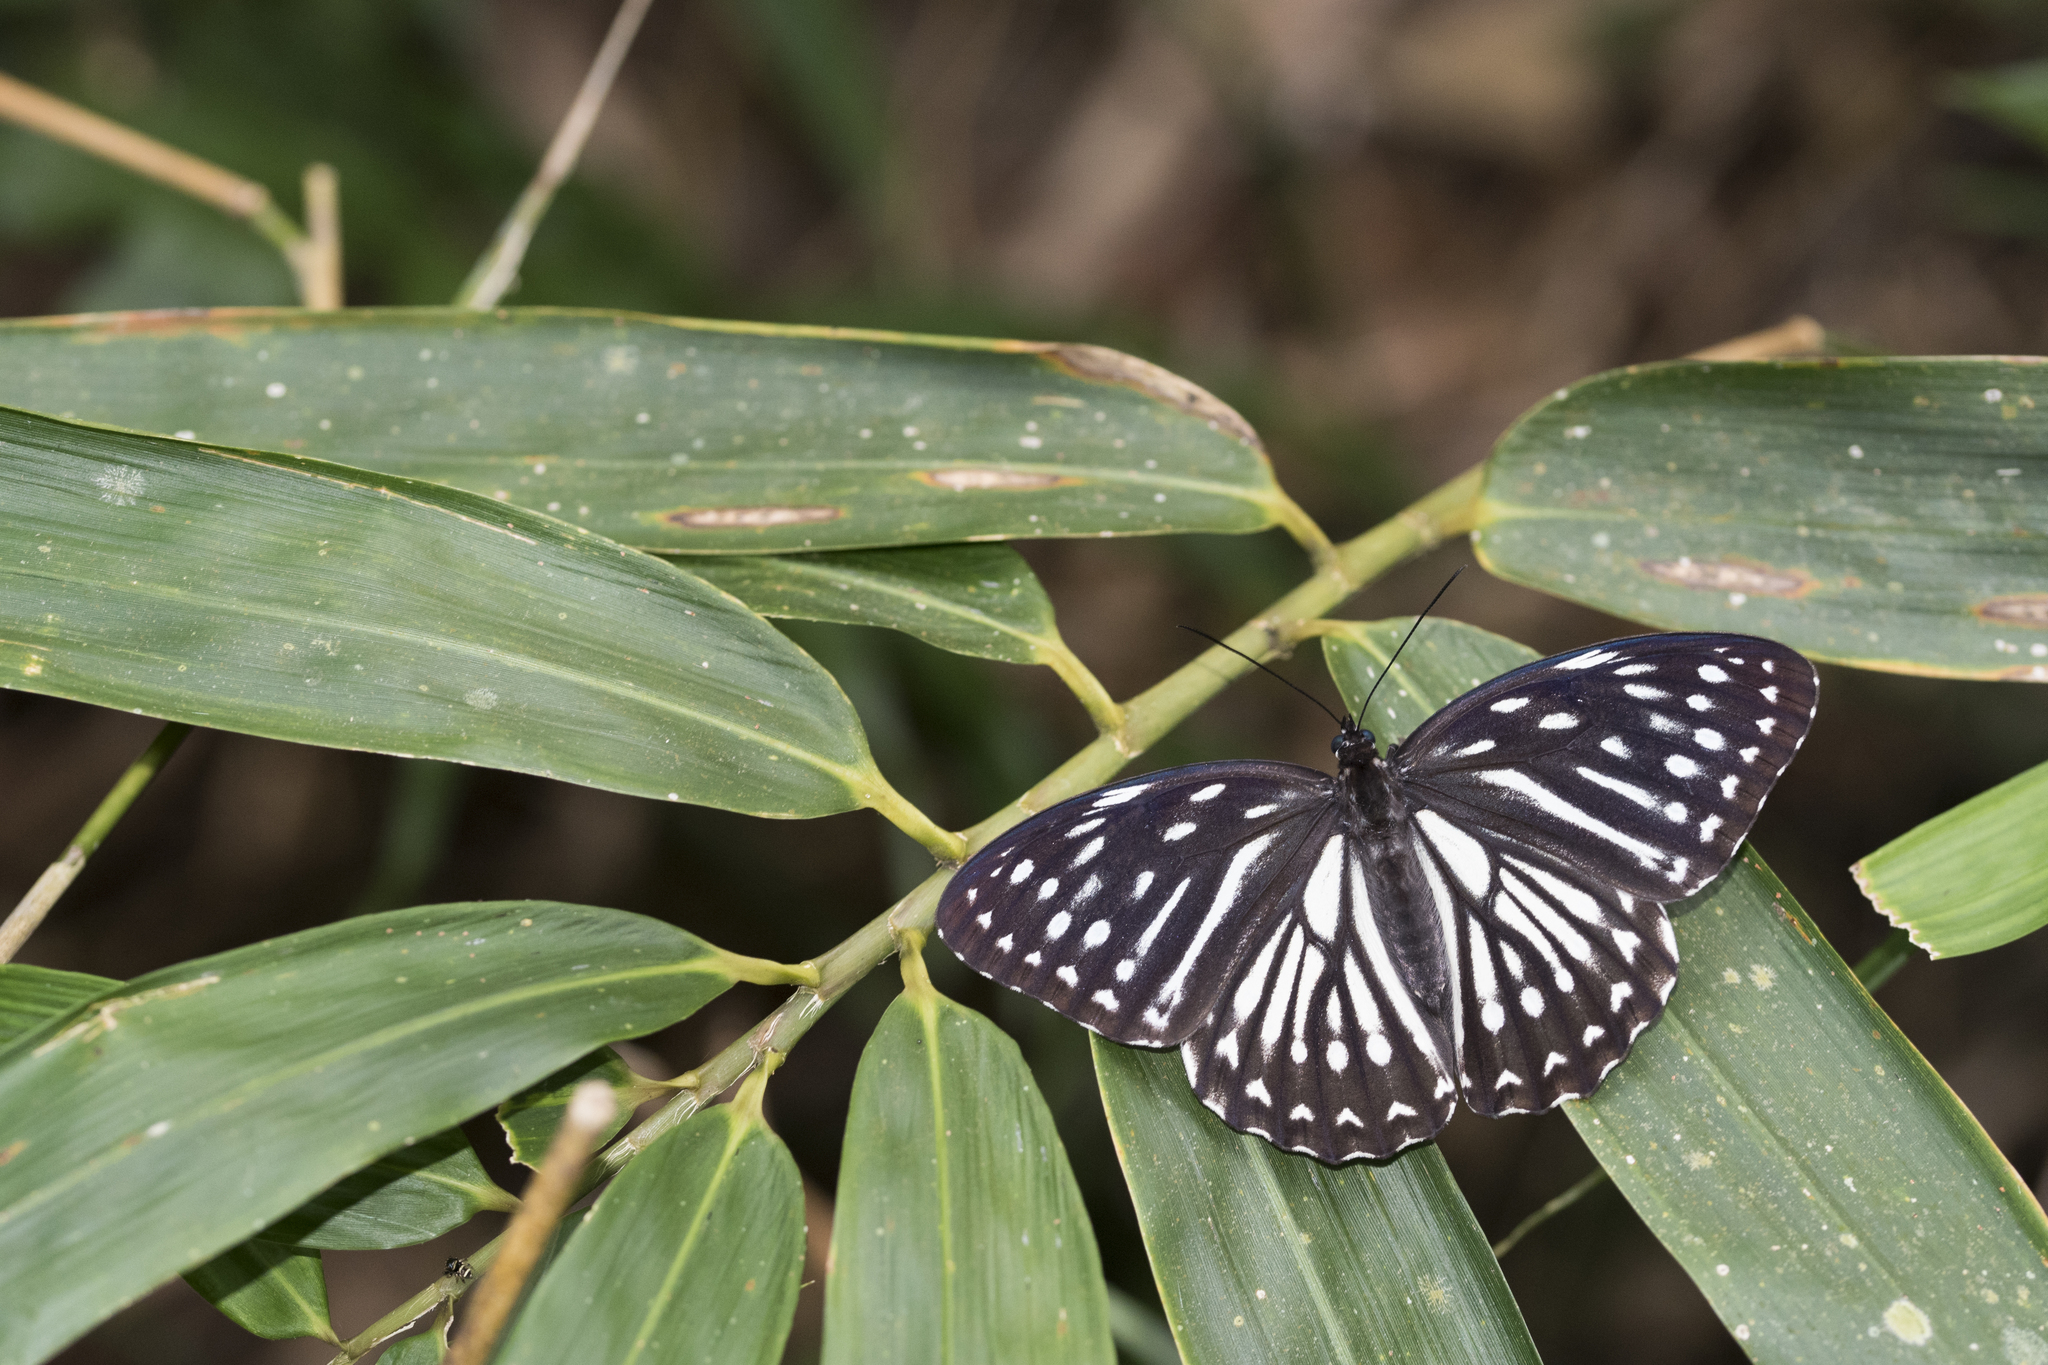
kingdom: Animalia
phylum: Arthropoda
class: Insecta
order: Lepidoptera
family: Nymphalidae
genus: Penthema
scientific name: Penthema formosanum
